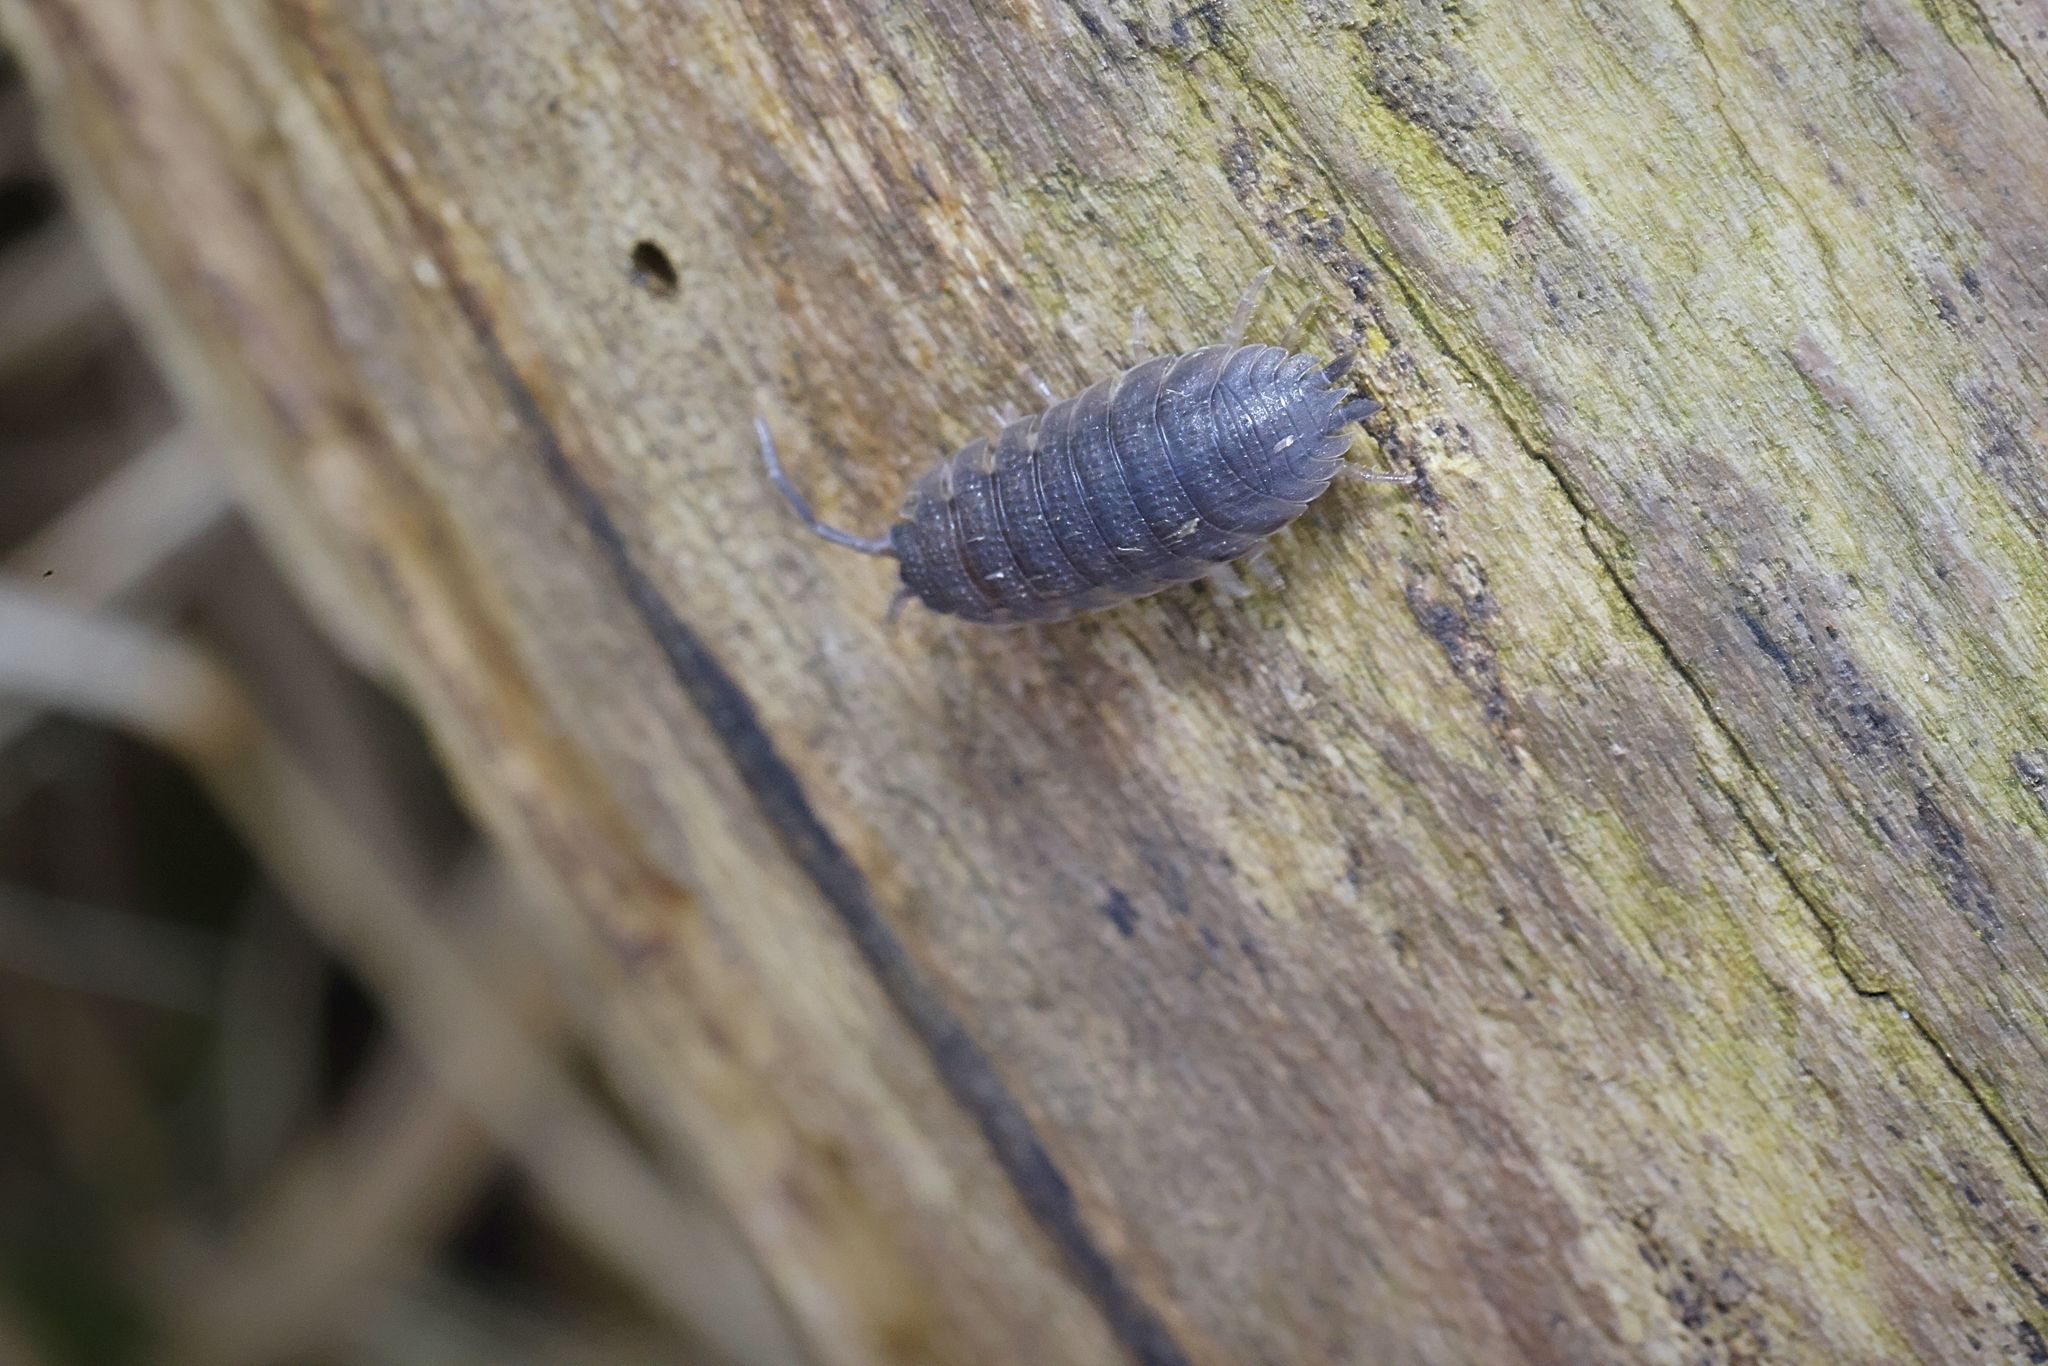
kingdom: Animalia
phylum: Arthropoda
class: Malacostraca
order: Isopoda
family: Porcellionidae
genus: Porcellio
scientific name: Porcellio scaber
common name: Common rough woodlouse
